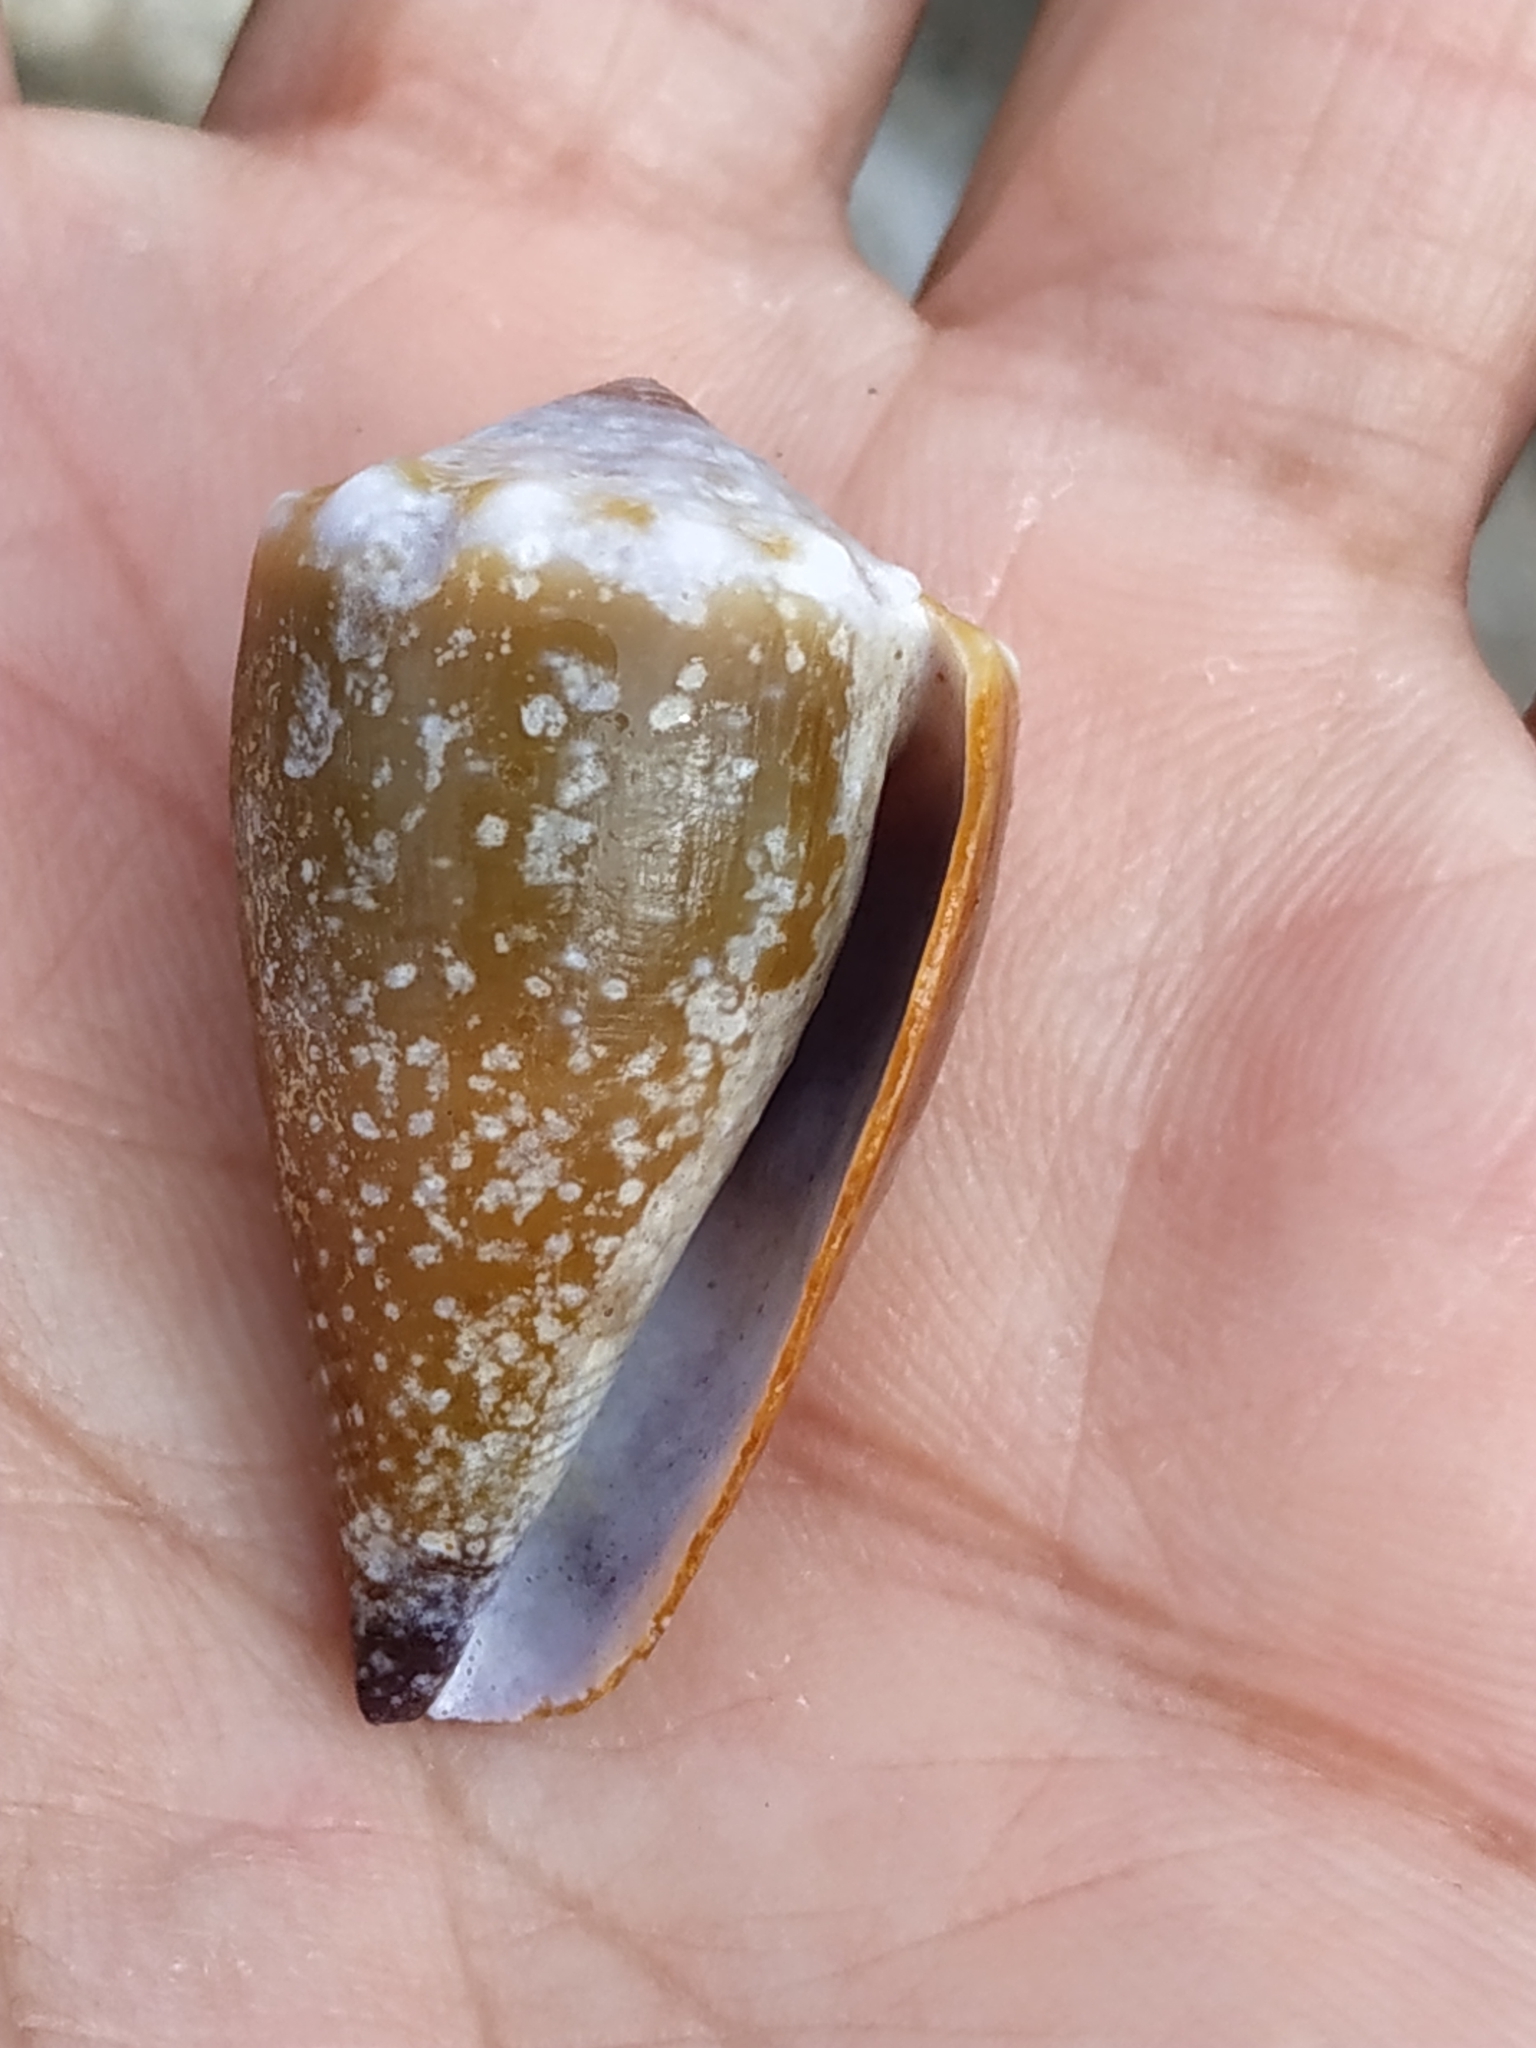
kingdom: Animalia
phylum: Mollusca
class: Gastropoda
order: Neogastropoda
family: Conidae
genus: Conus
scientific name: Conus sanguinolentus
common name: Blood-stained cone
